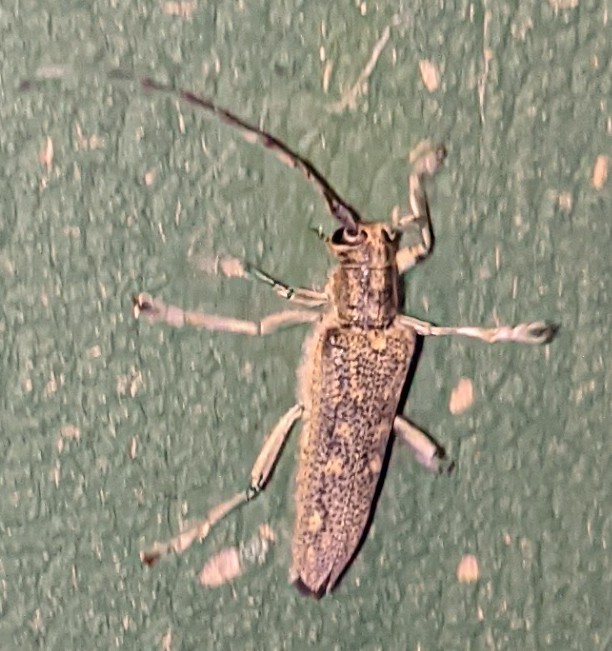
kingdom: Animalia
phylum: Arthropoda
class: Insecta
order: Coleoptera
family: Cerambycidae
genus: Saperda
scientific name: Saperda calcarata
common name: Poplar borer
